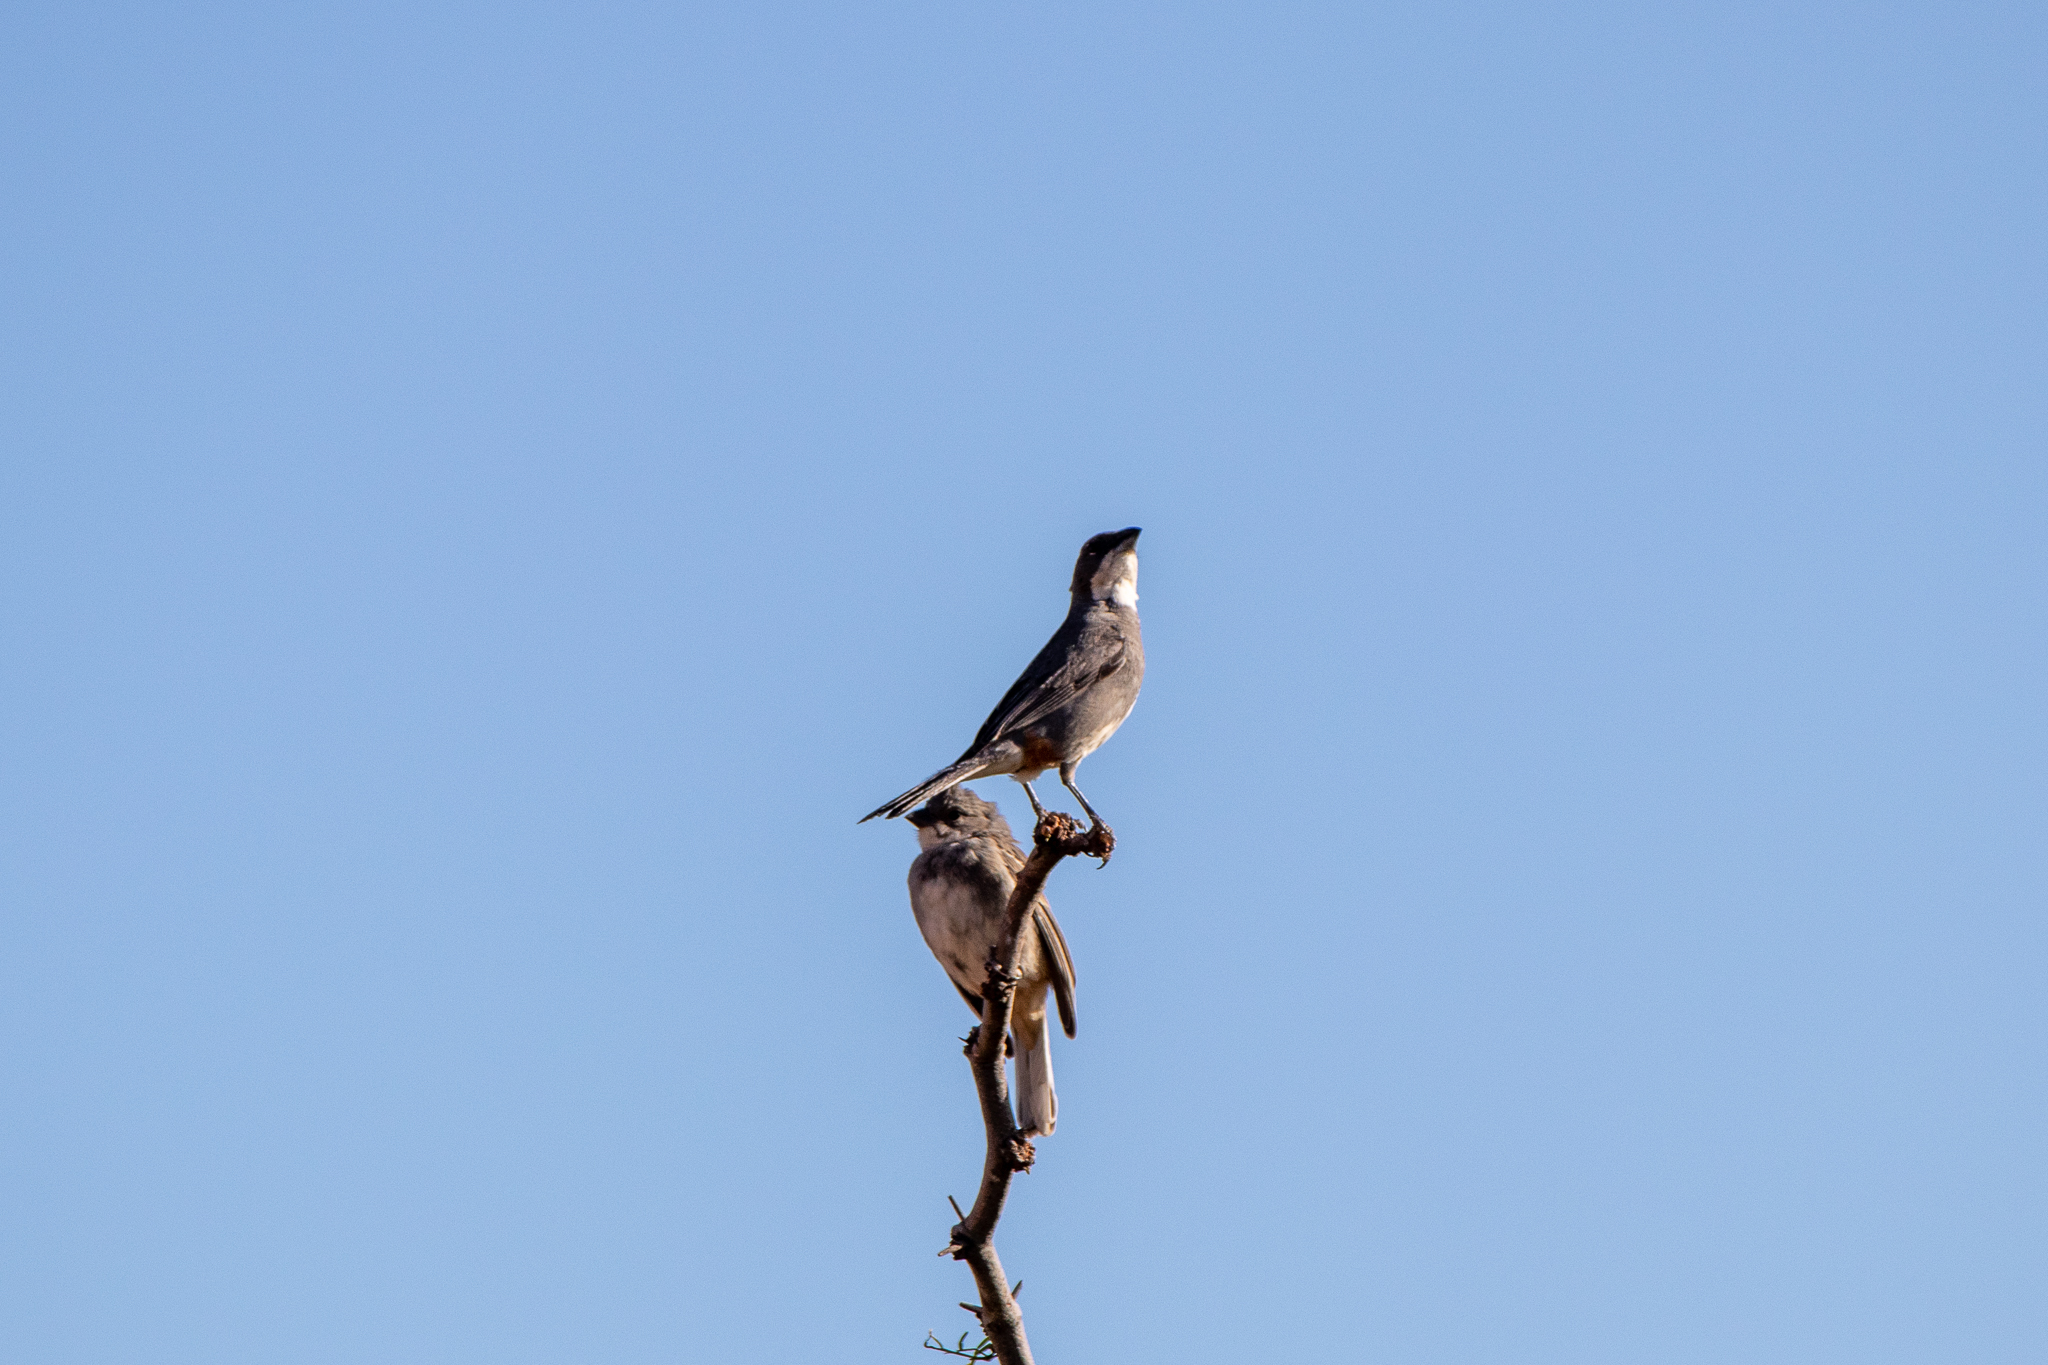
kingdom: Animalia
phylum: Chordata
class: Aves
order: Passeriformes
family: Thraupidae
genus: Diuca
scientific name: Diuca diuca
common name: Common diuca finch
